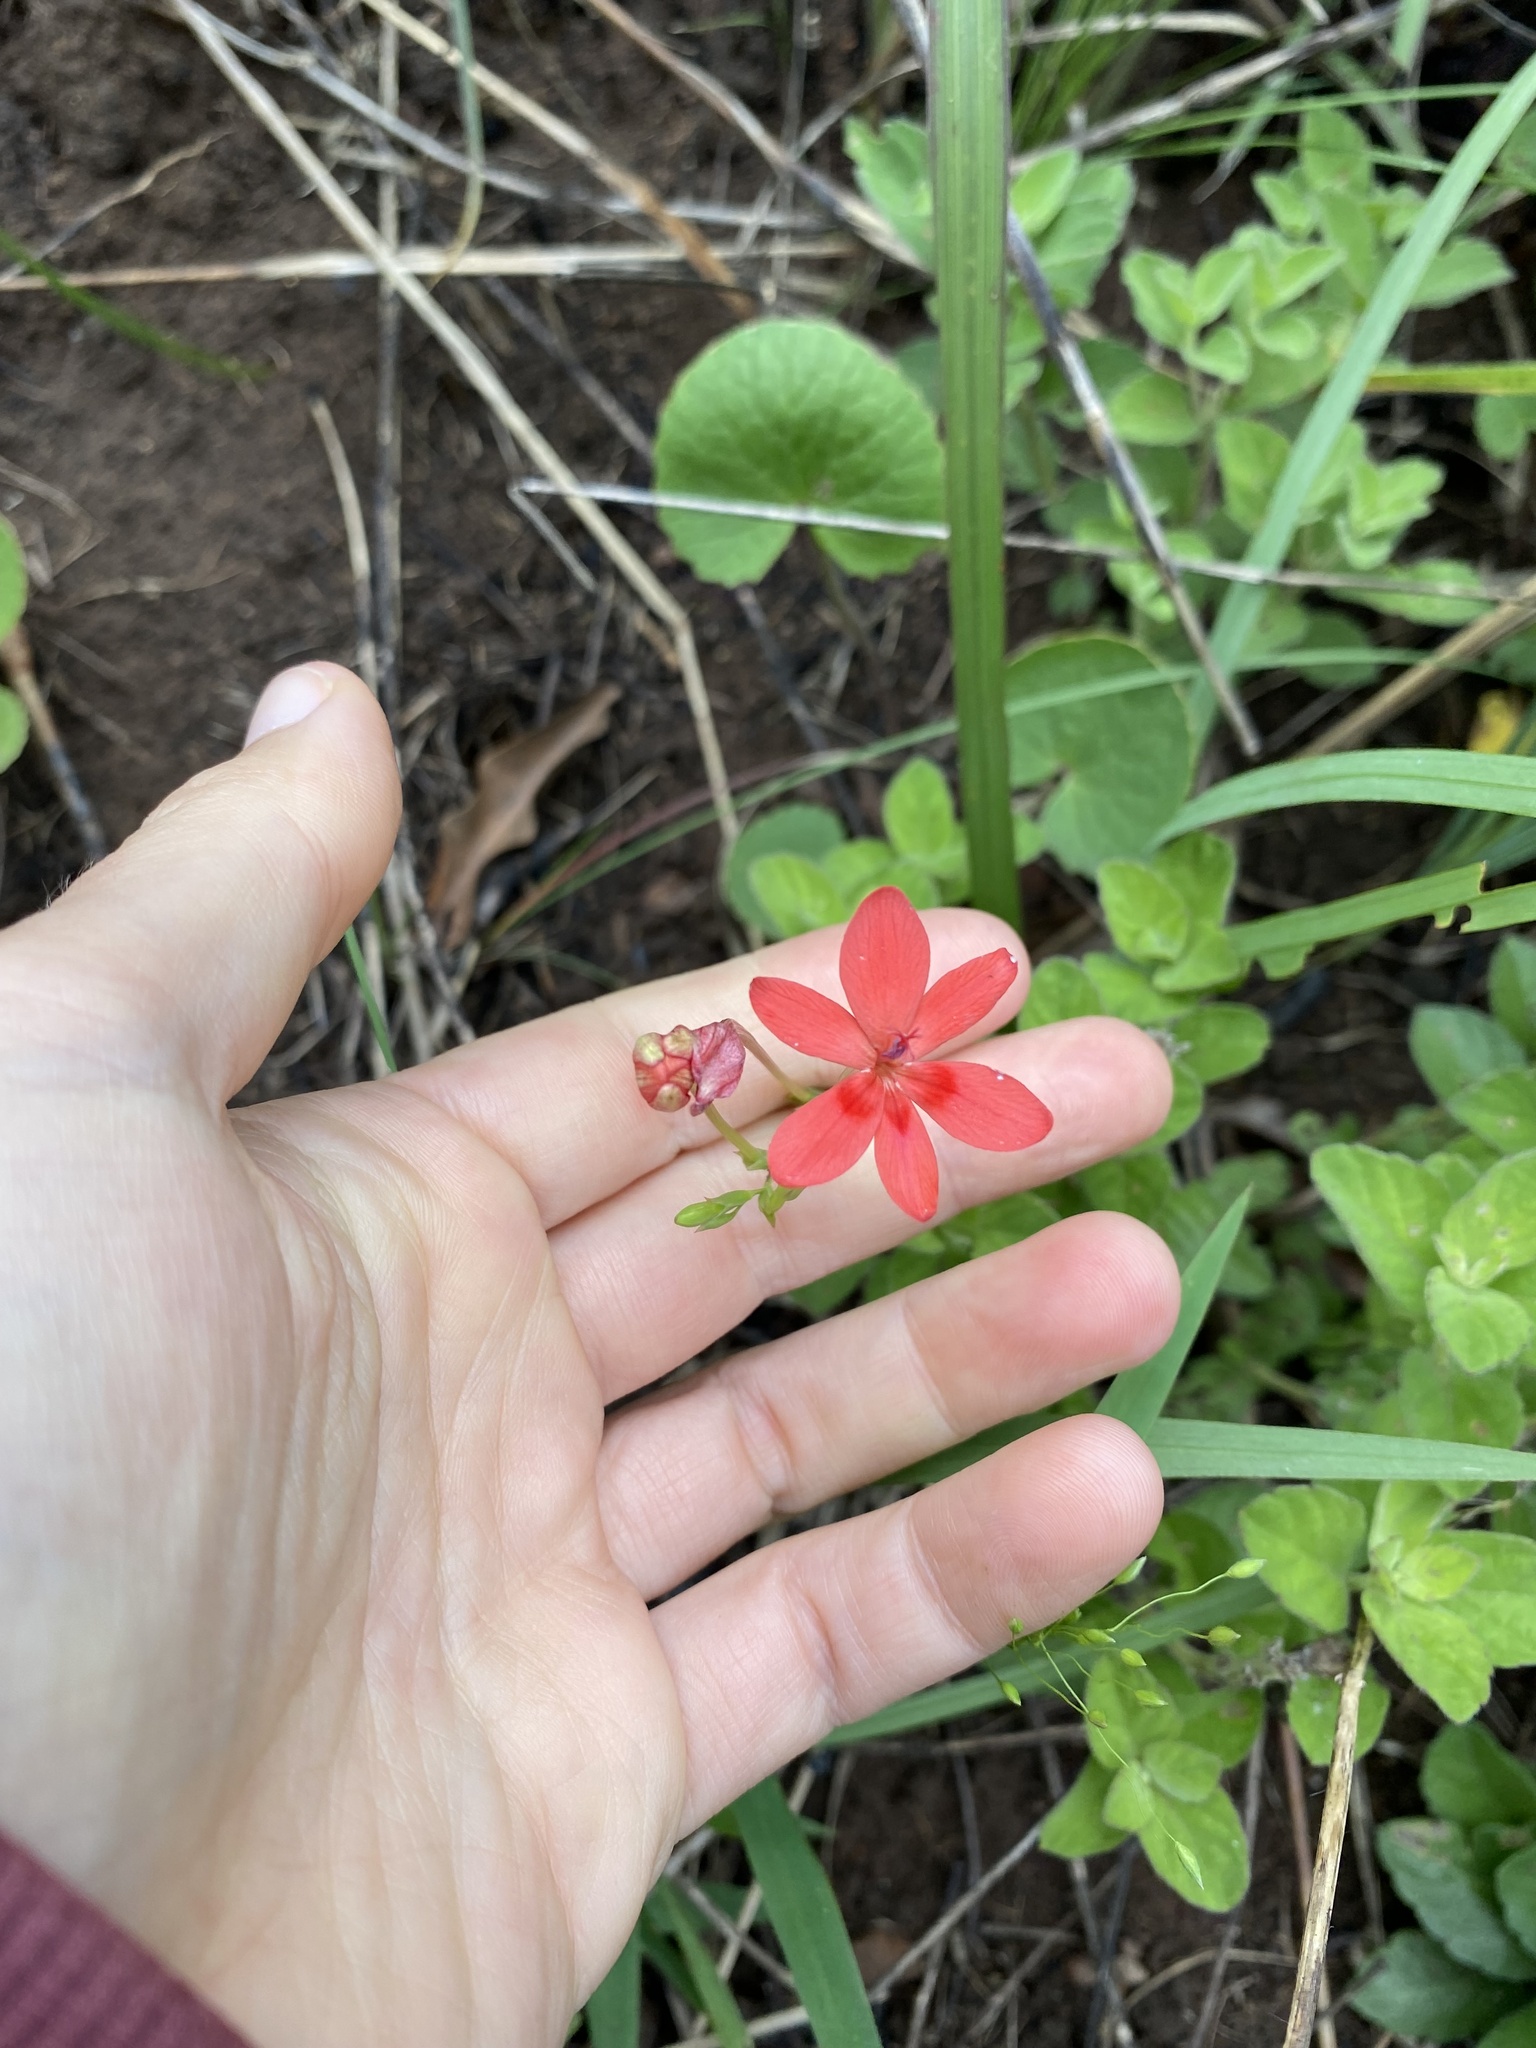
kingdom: Plantae
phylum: Tracheophyta
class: Liliopsida
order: Asparagales
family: Iridaceae
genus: Freesia
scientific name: Freesia laxa
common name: False freesia
